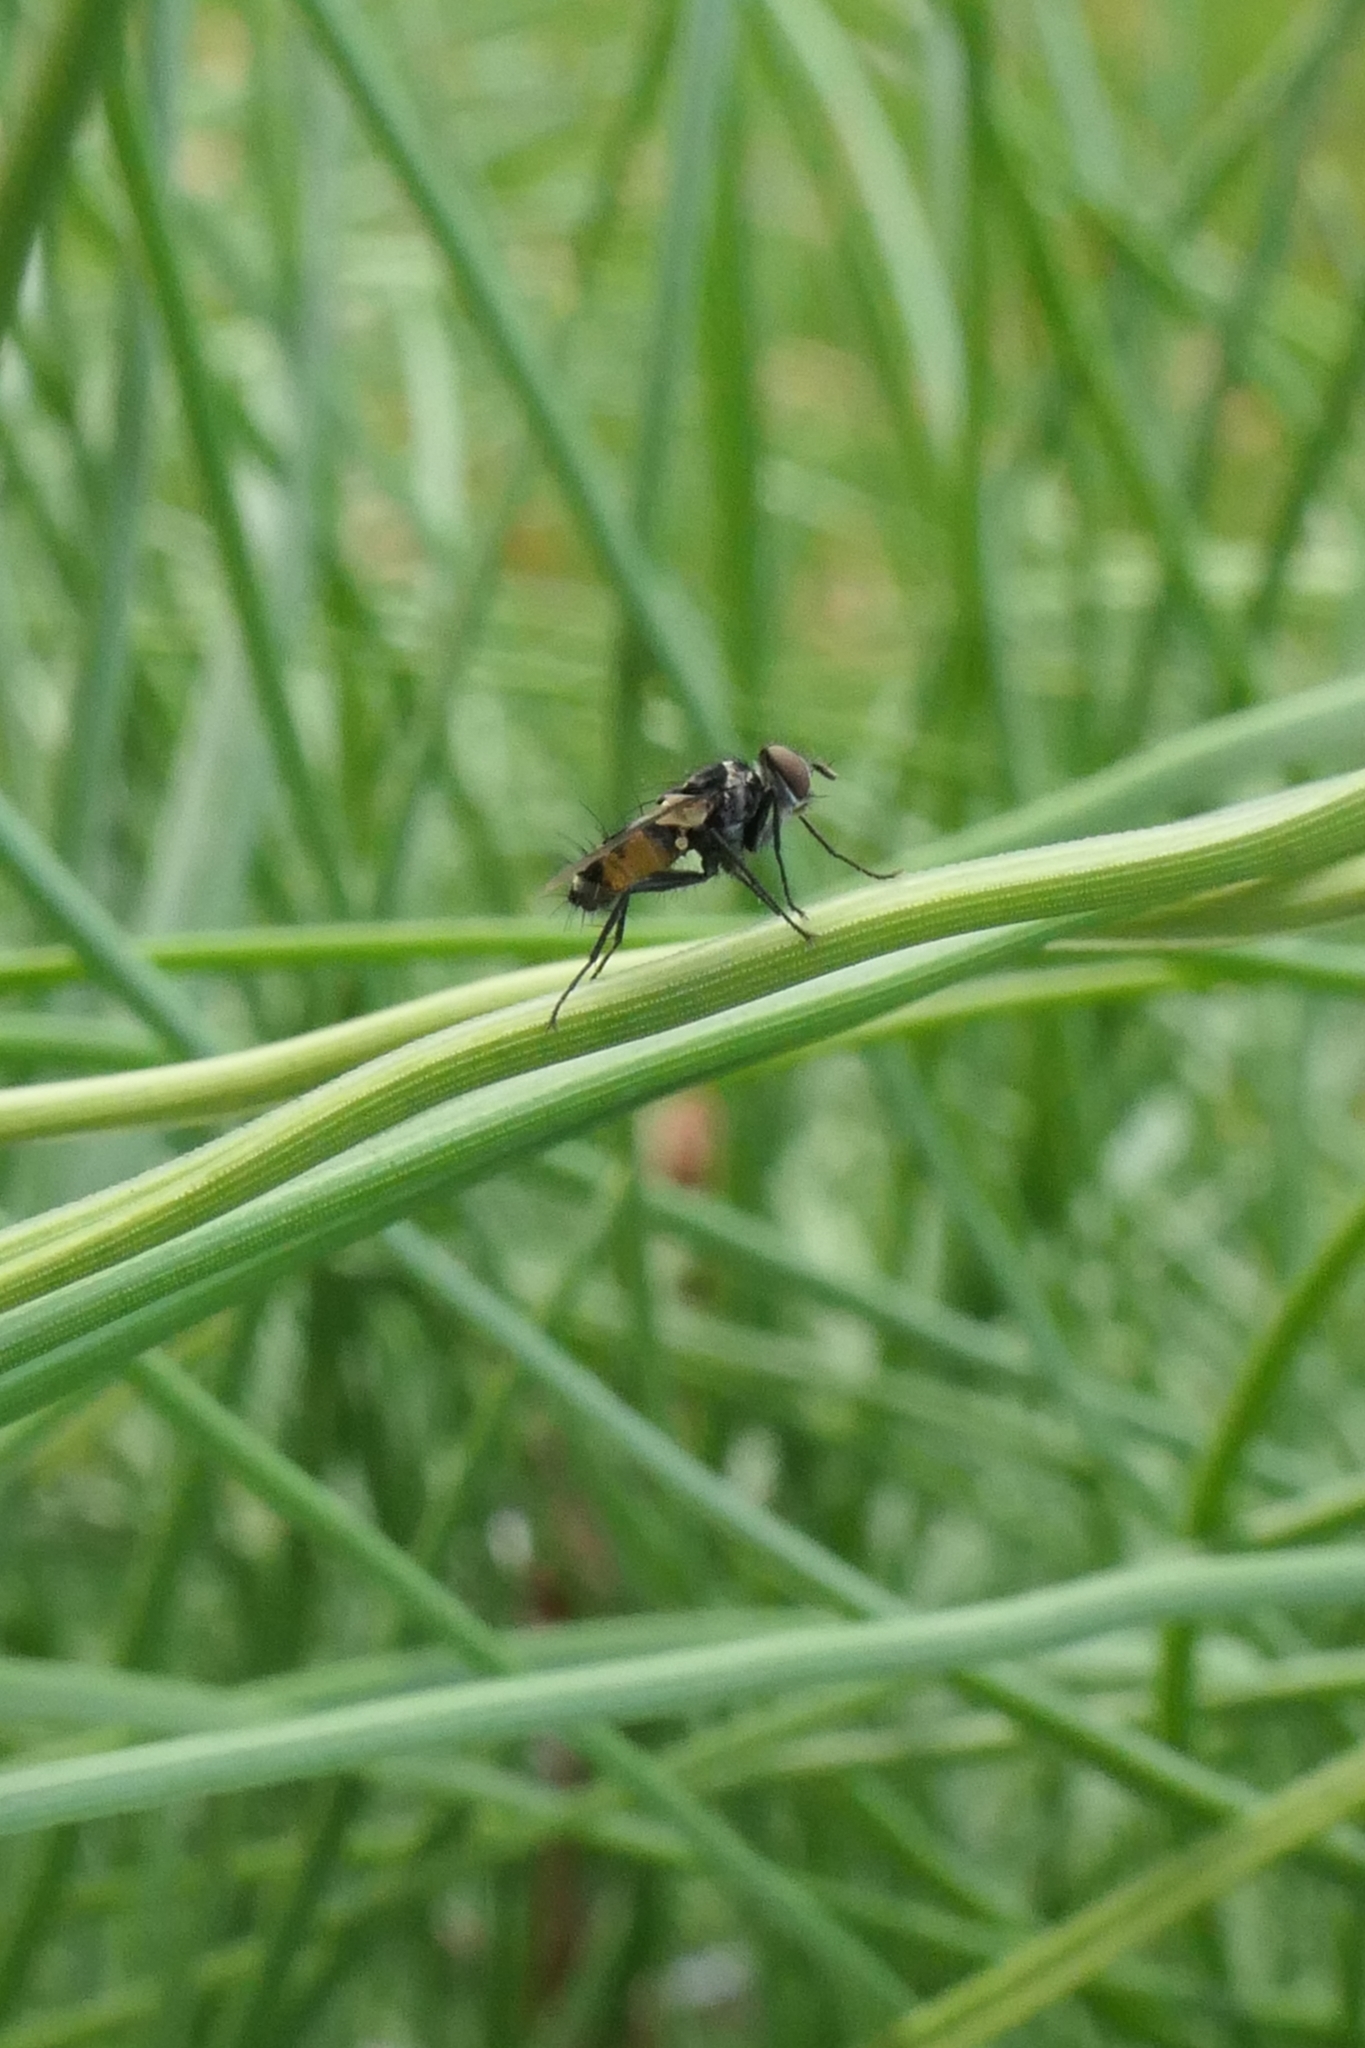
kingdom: Animalia
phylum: Arthropoda
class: Insecta
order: Diptera
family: Tachinidae
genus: Trigonospila
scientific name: Trigonospila brevifacies
